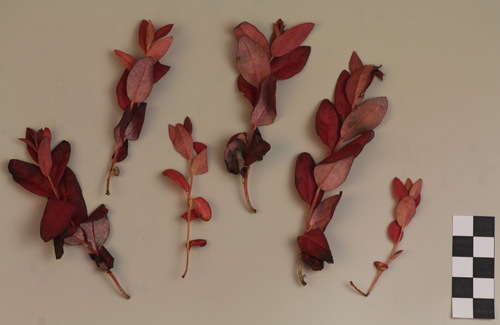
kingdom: Fungi
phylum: Basidiomycota
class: Exobasidiomycetes
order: Exobasidiales
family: Exobasidiaceae
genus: Exobasidium
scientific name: Exobasidium savilei
